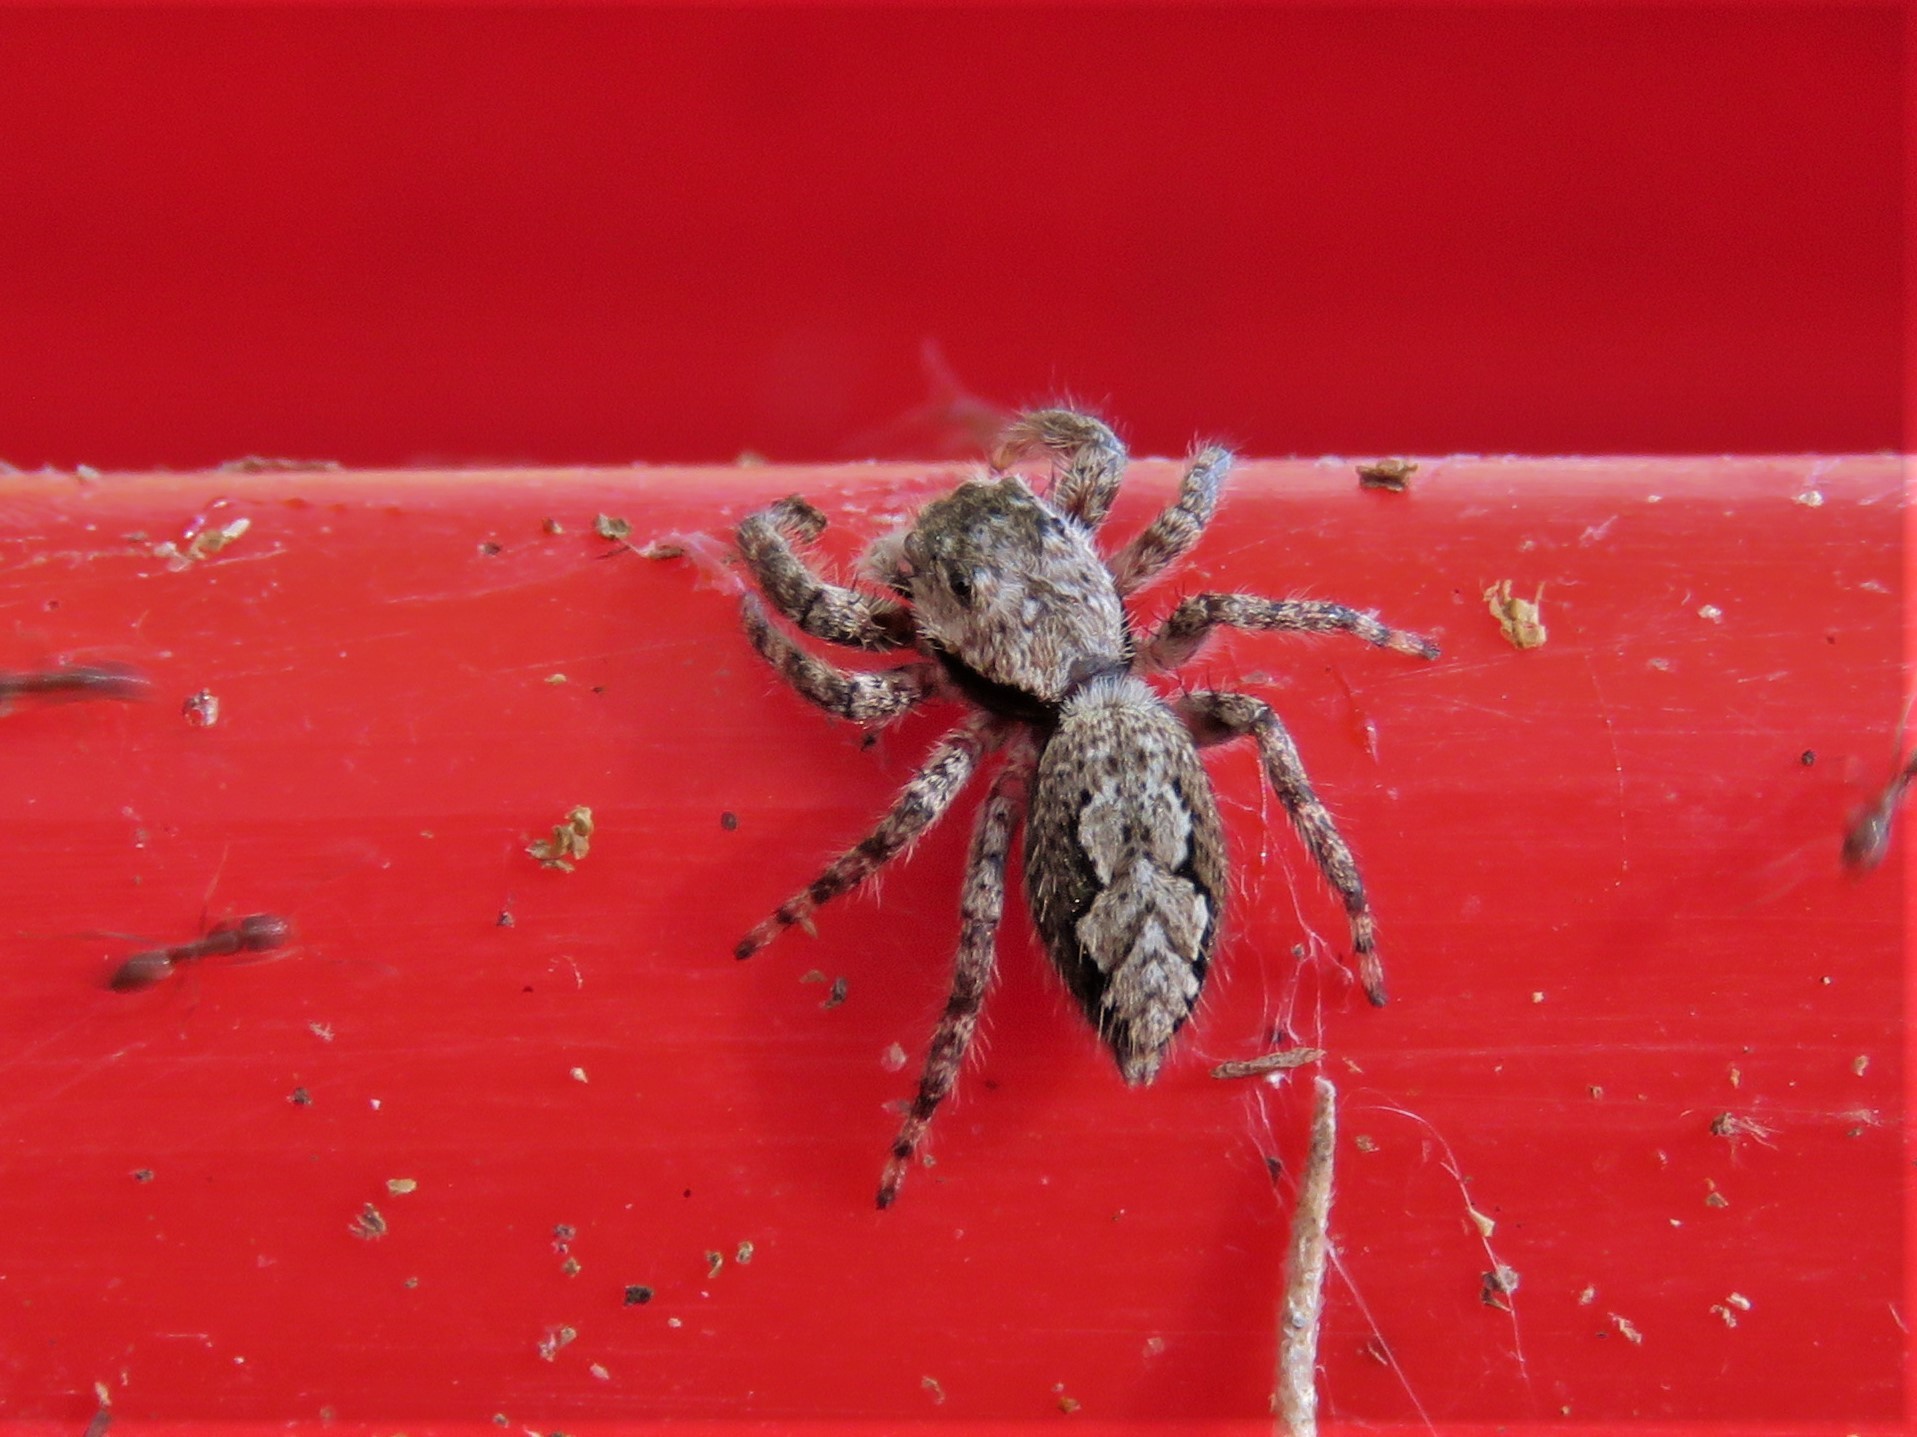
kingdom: Animalia
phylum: Arthropoda
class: Arachnida
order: Araneae
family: Salticidae
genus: Platycryptus
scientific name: Platycryptus undatus
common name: Tan jumping spider
